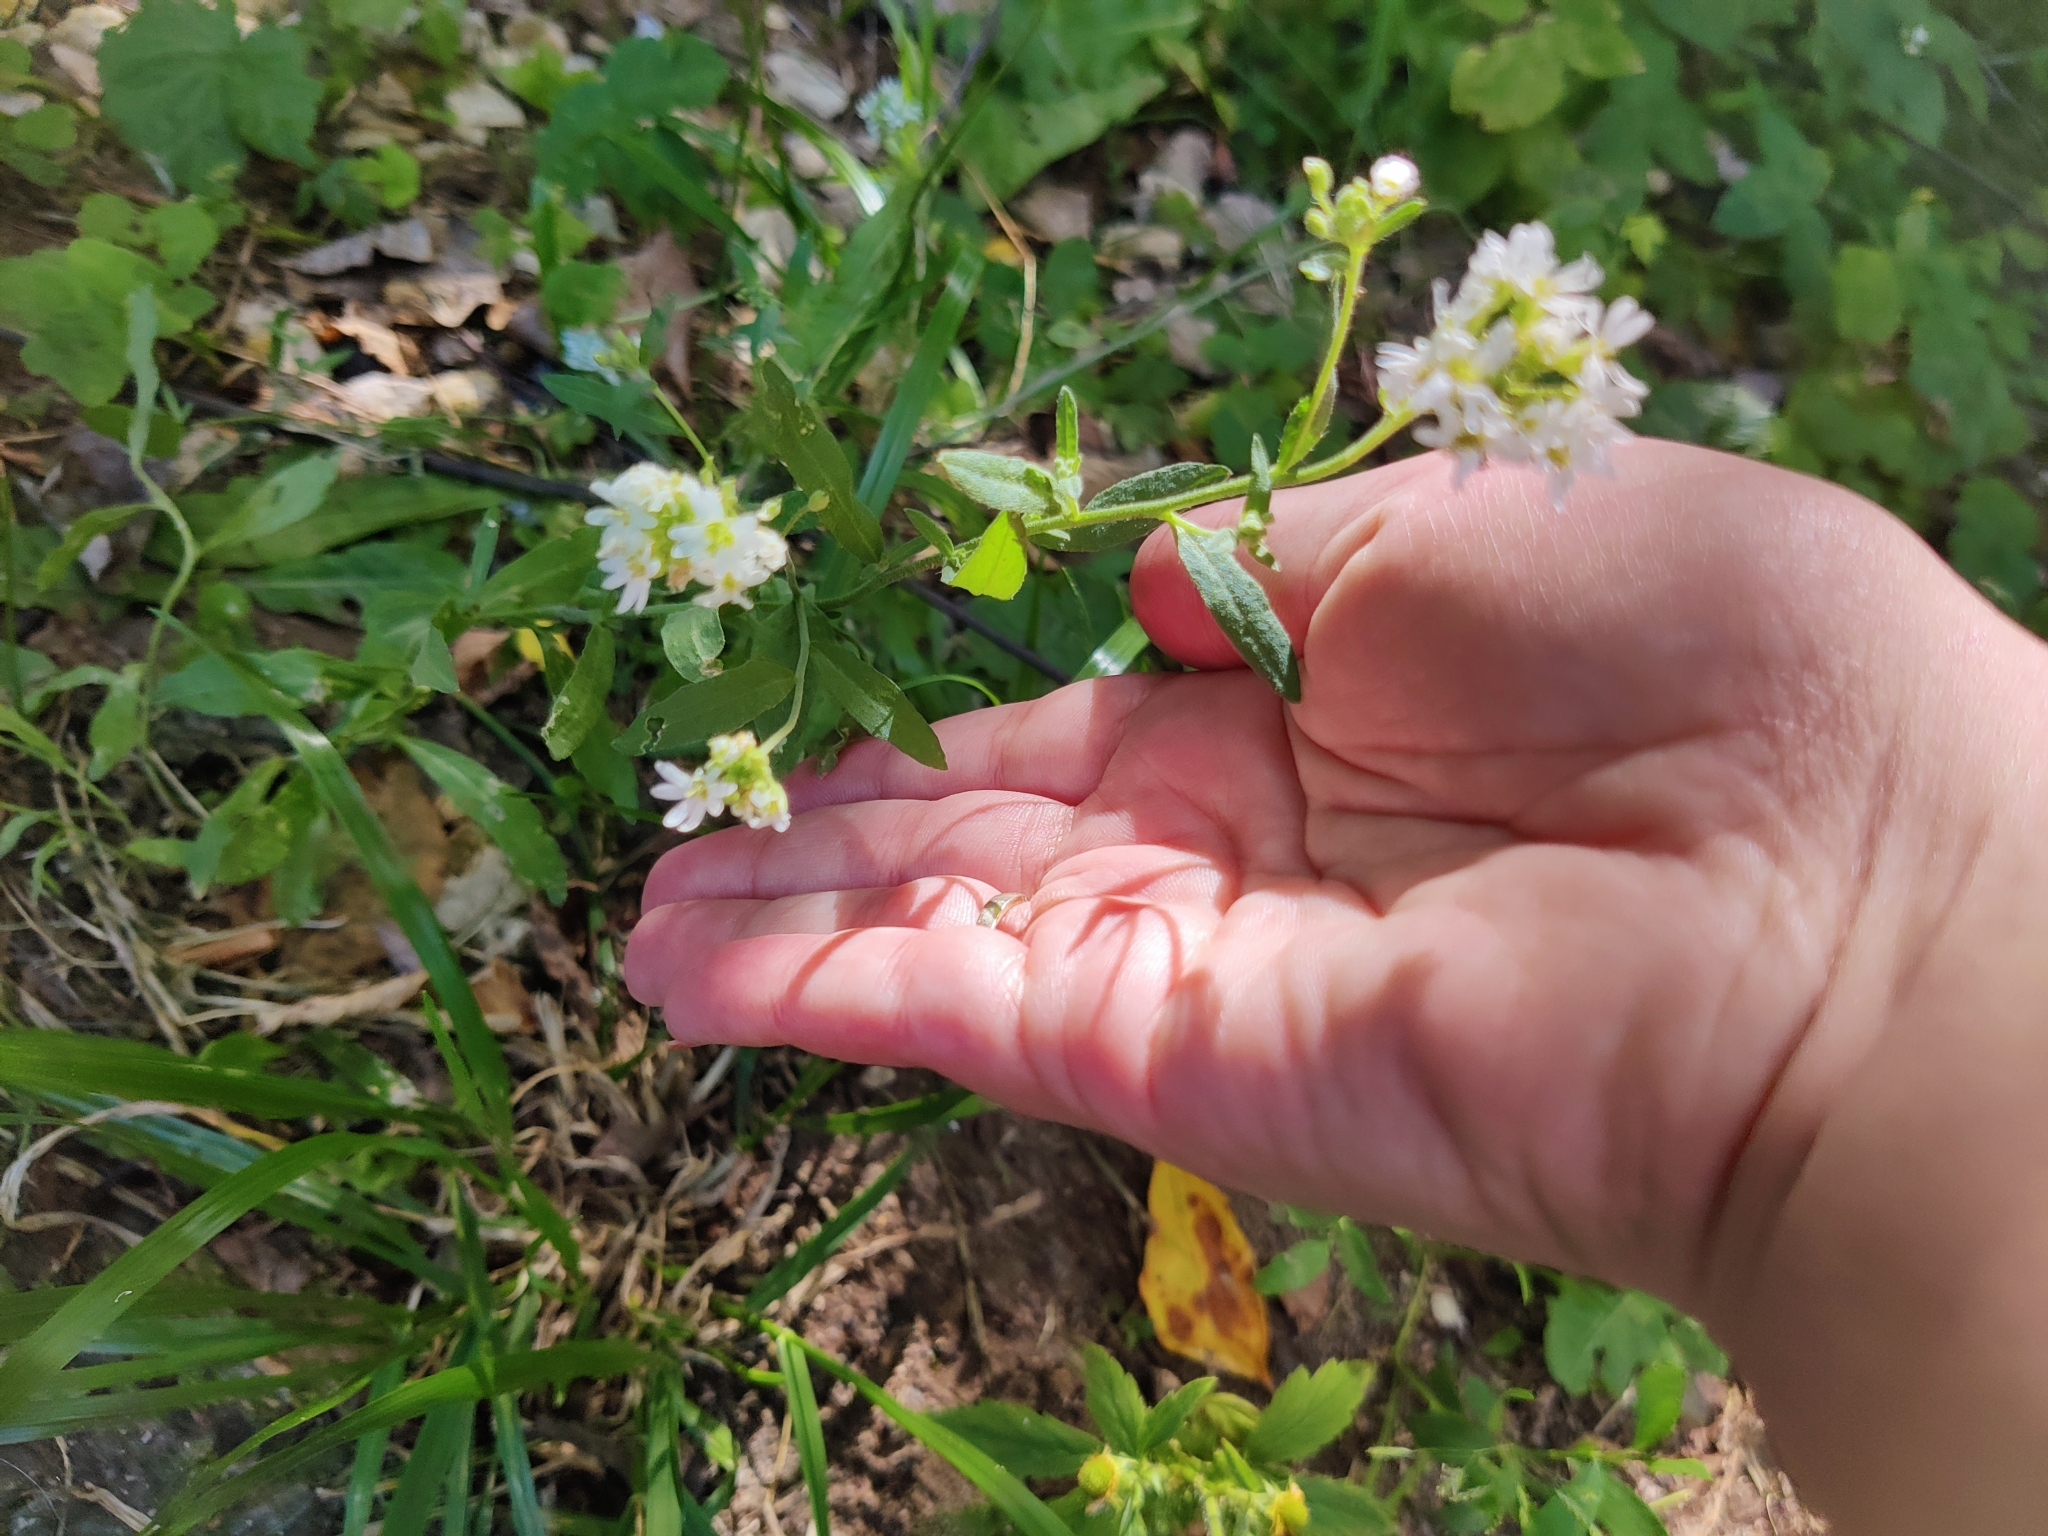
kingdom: Plantae
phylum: Tracheophyta
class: Magnoliopsida
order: Caryophyllales
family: Caryophyllaceae
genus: Saponaria
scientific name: Saponaria officinalis
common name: Soapwort
